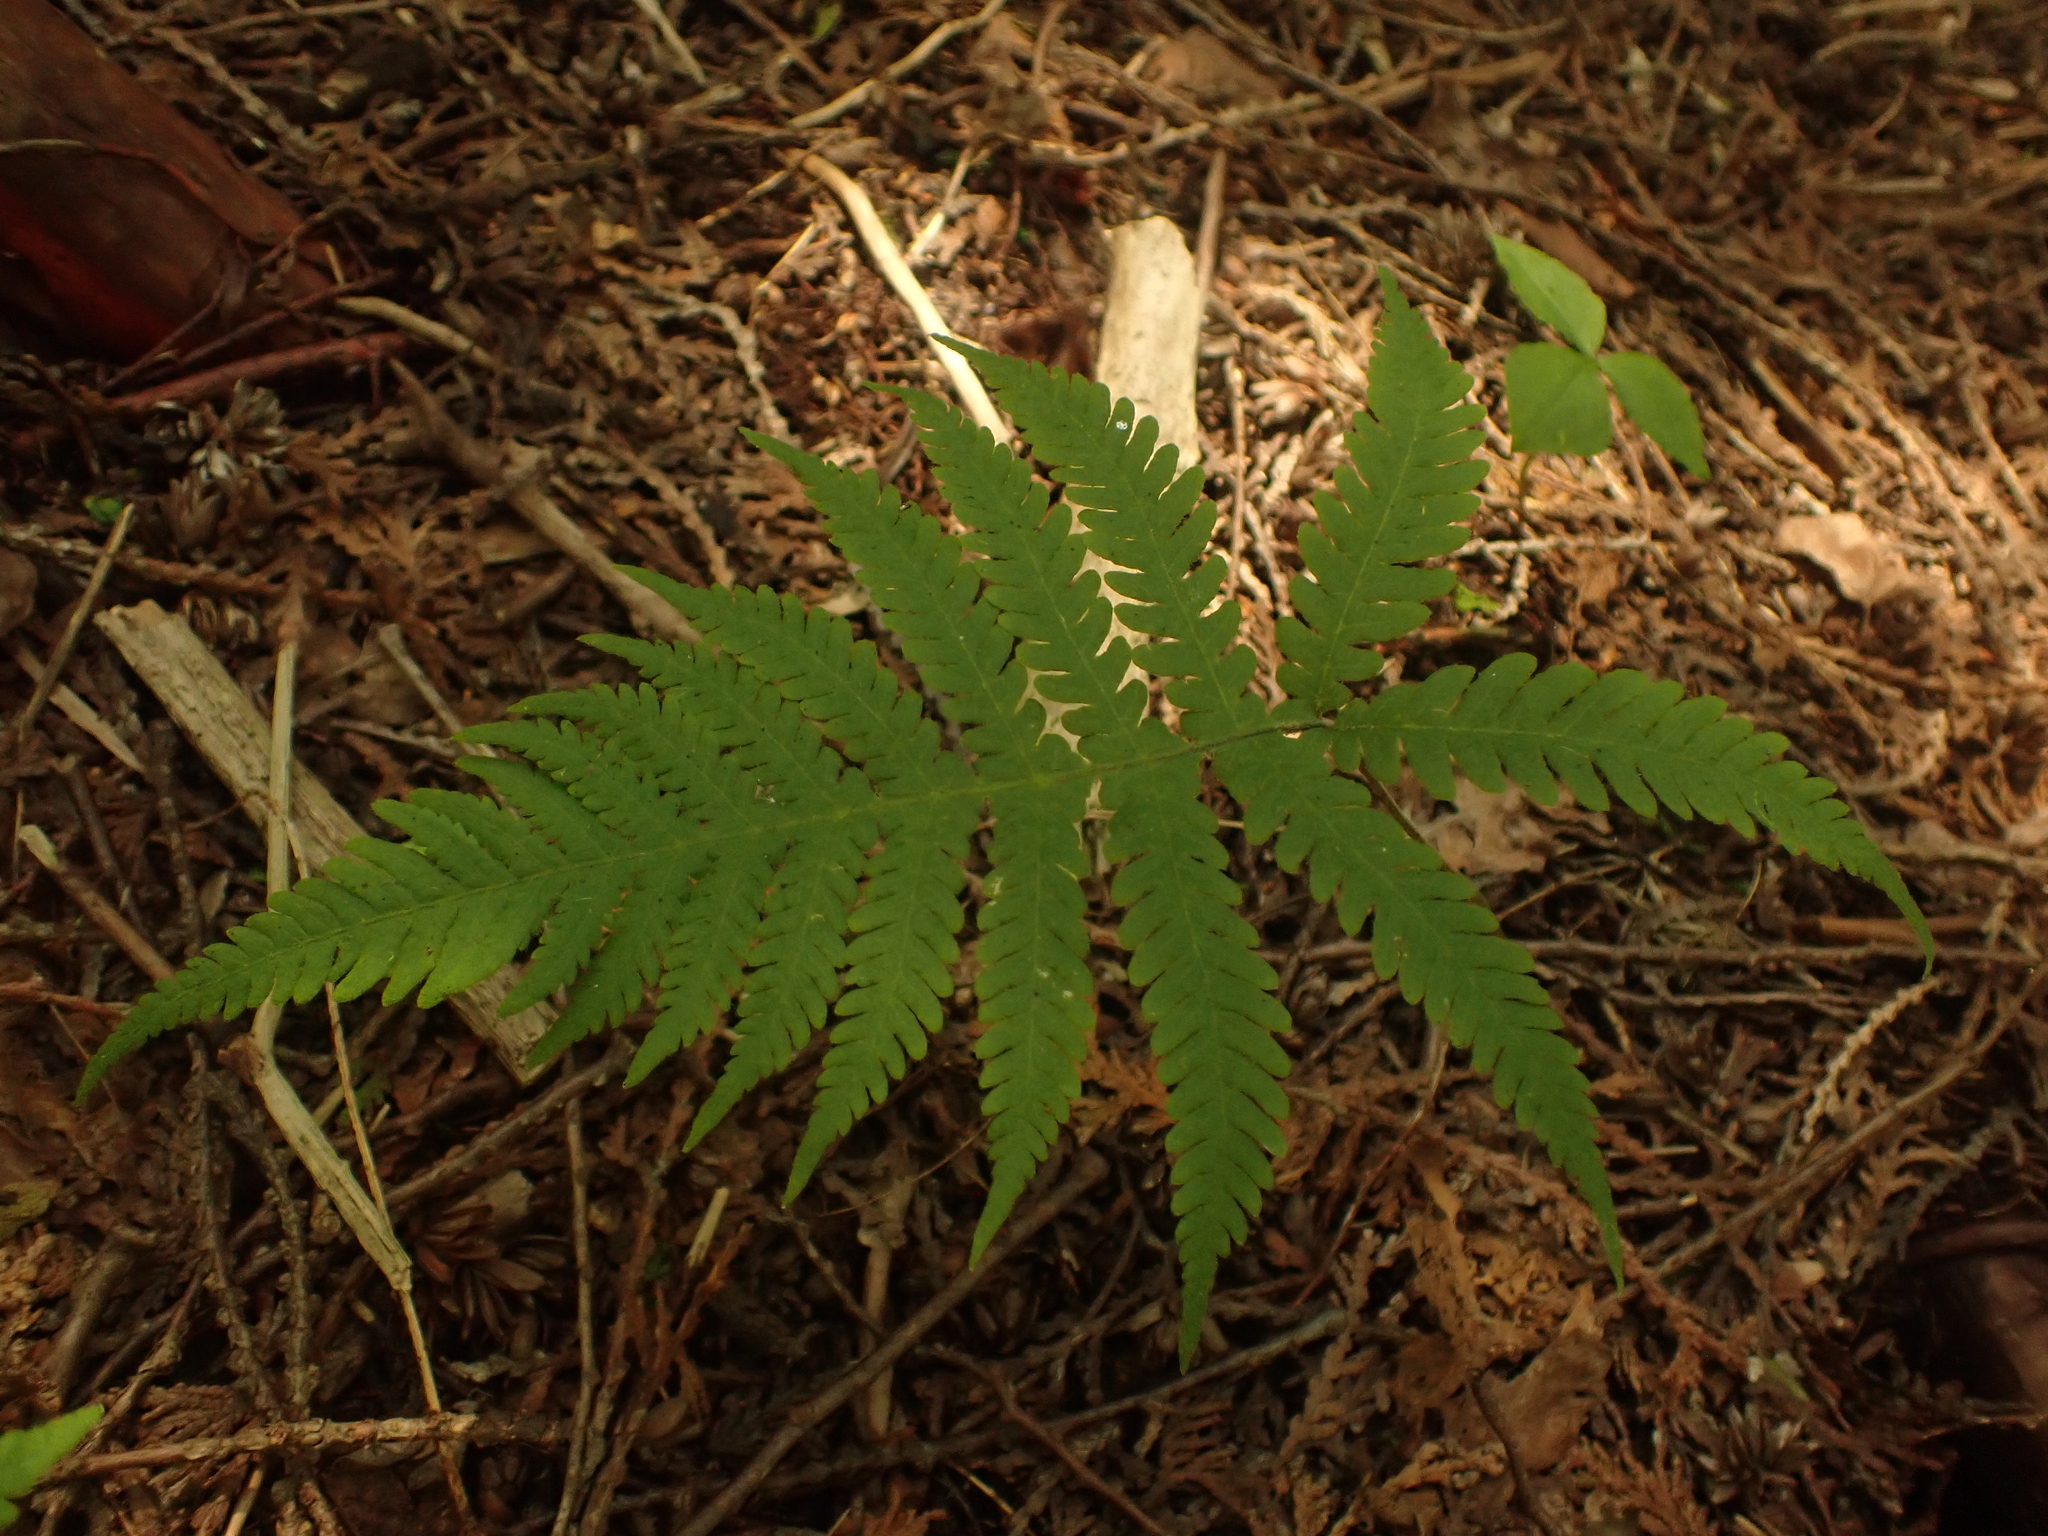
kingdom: Plantae
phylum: Tracheophyta
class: Polypodiopsida
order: Polypodiales
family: Thelypteridaceae
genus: Phegopteris
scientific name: Phegopteris connectilis
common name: Beech fern
